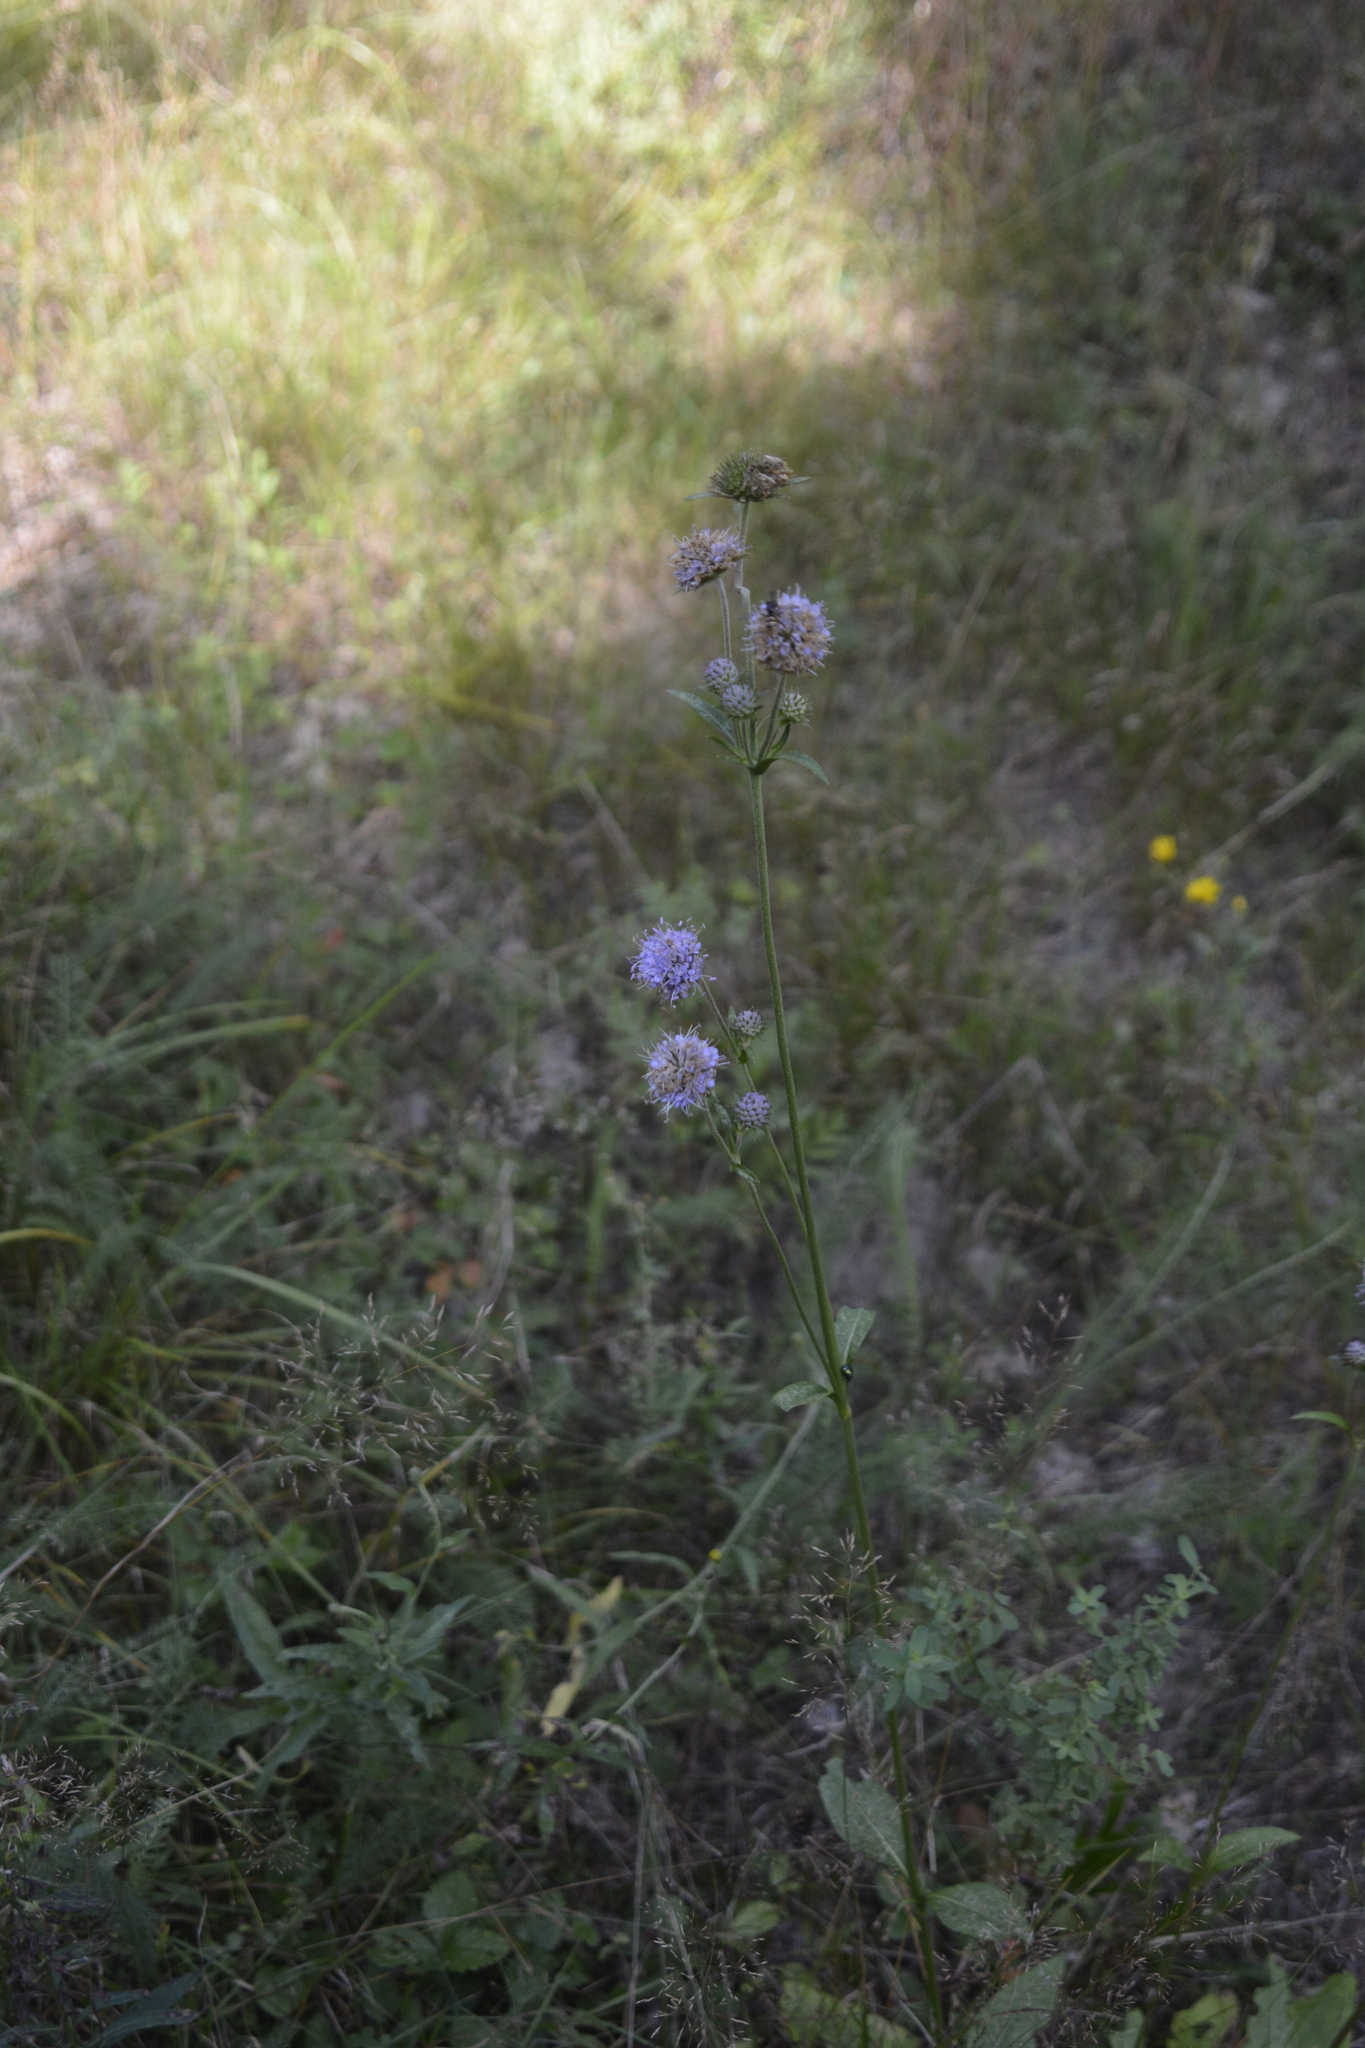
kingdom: Plantae
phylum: Tracheophyta
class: Magnoliopsida
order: Dipsacales
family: Caprifoliaceae
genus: Succisa
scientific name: Succisa pratensis
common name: Devil's-bit
